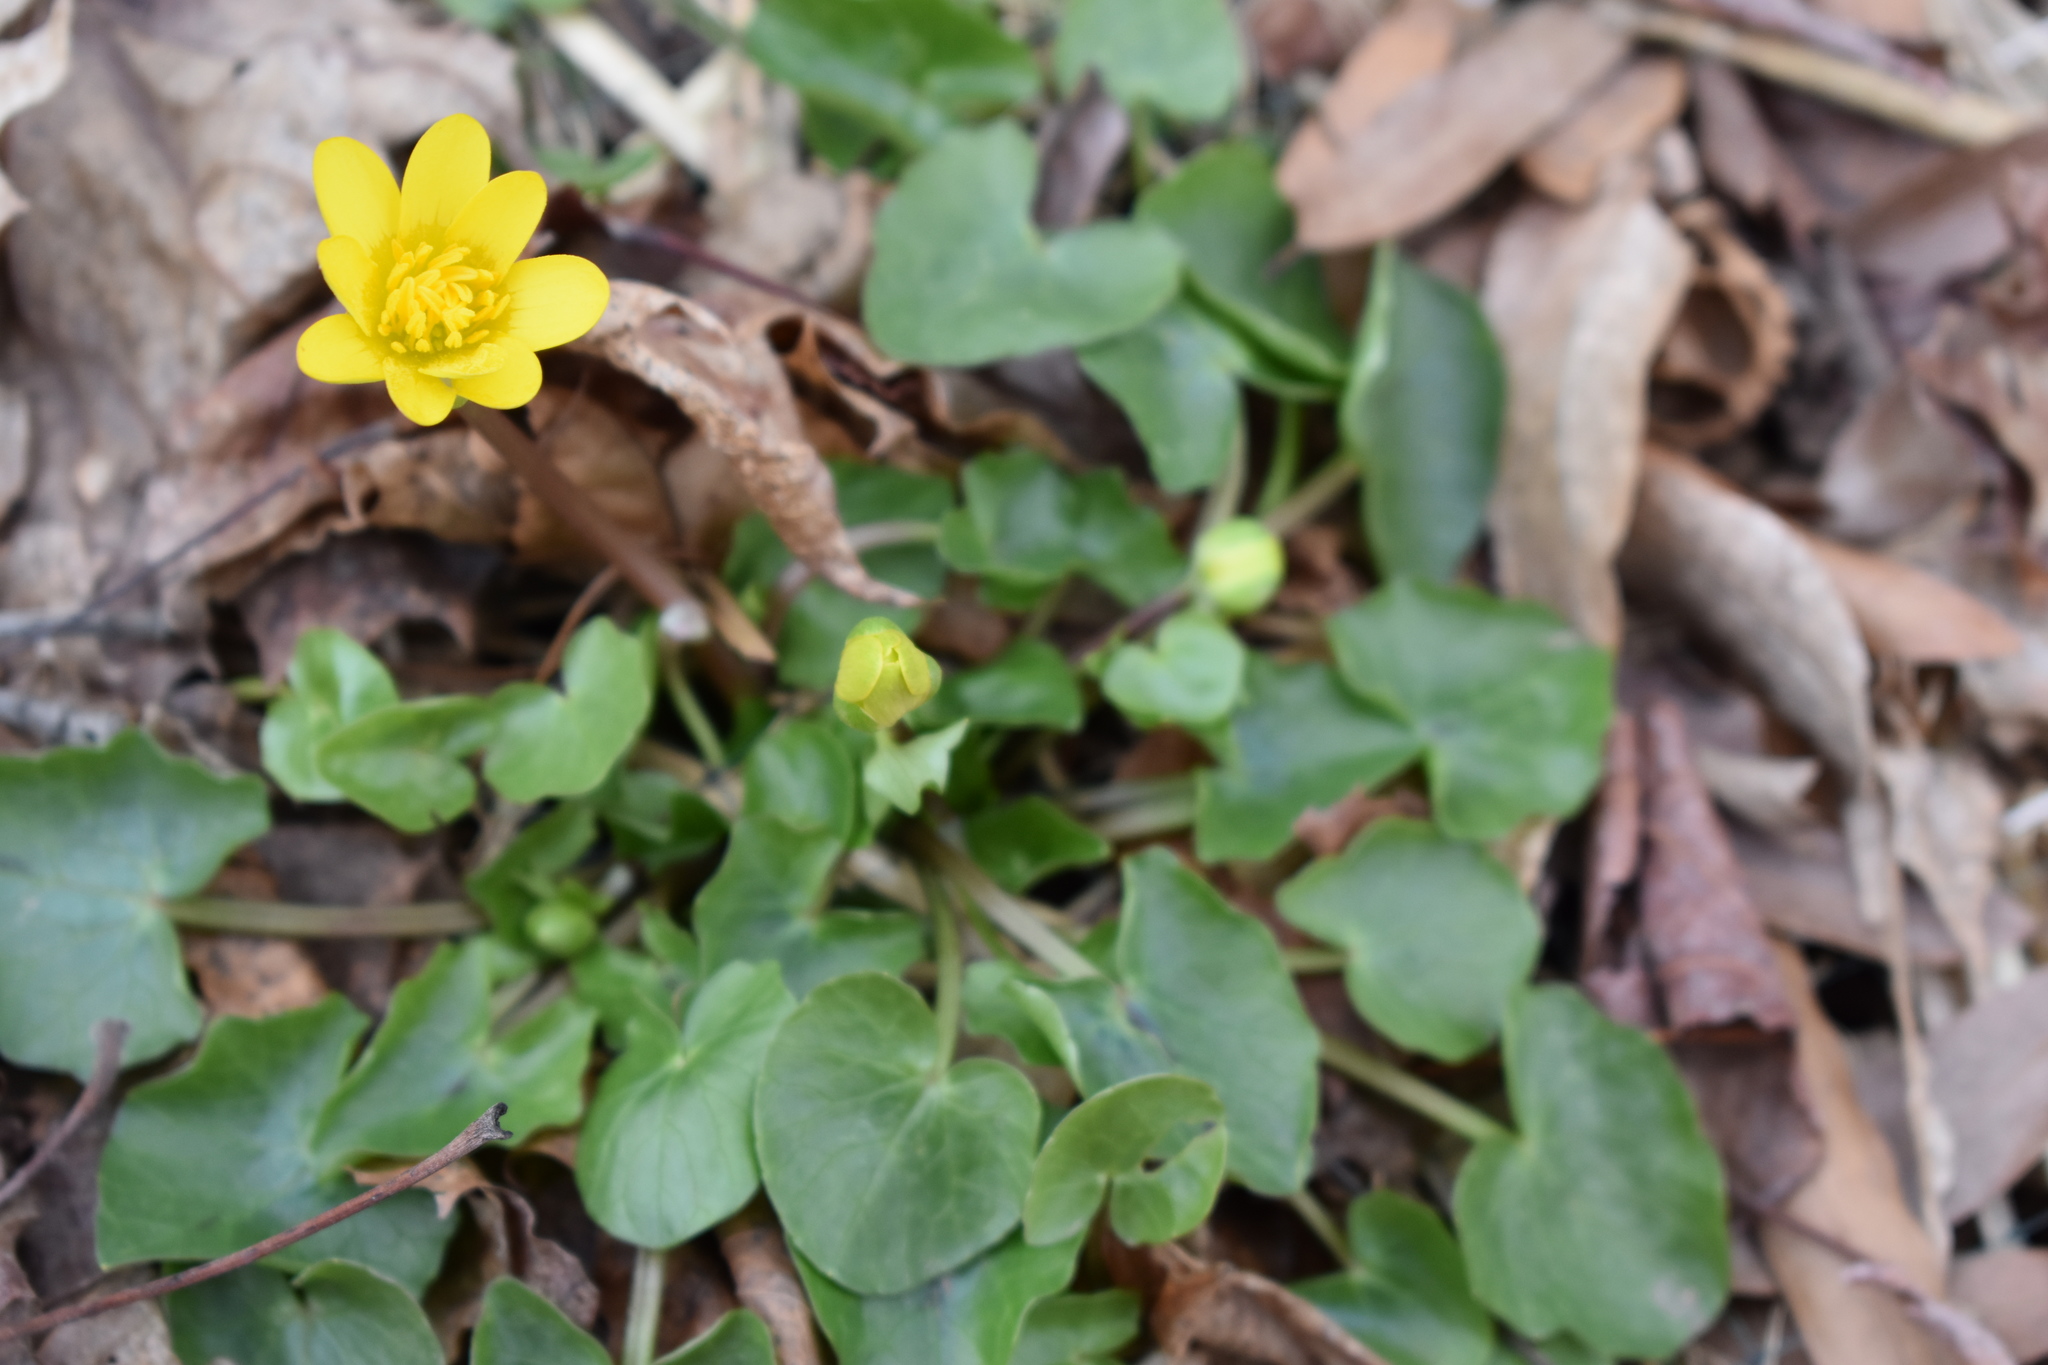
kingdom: Plantae
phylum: Tracheophyta
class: Magnoliopsida
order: Ranunculales
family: Ranunculaceae
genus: Ficaria
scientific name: Ficaria verna
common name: Lesser celandine
